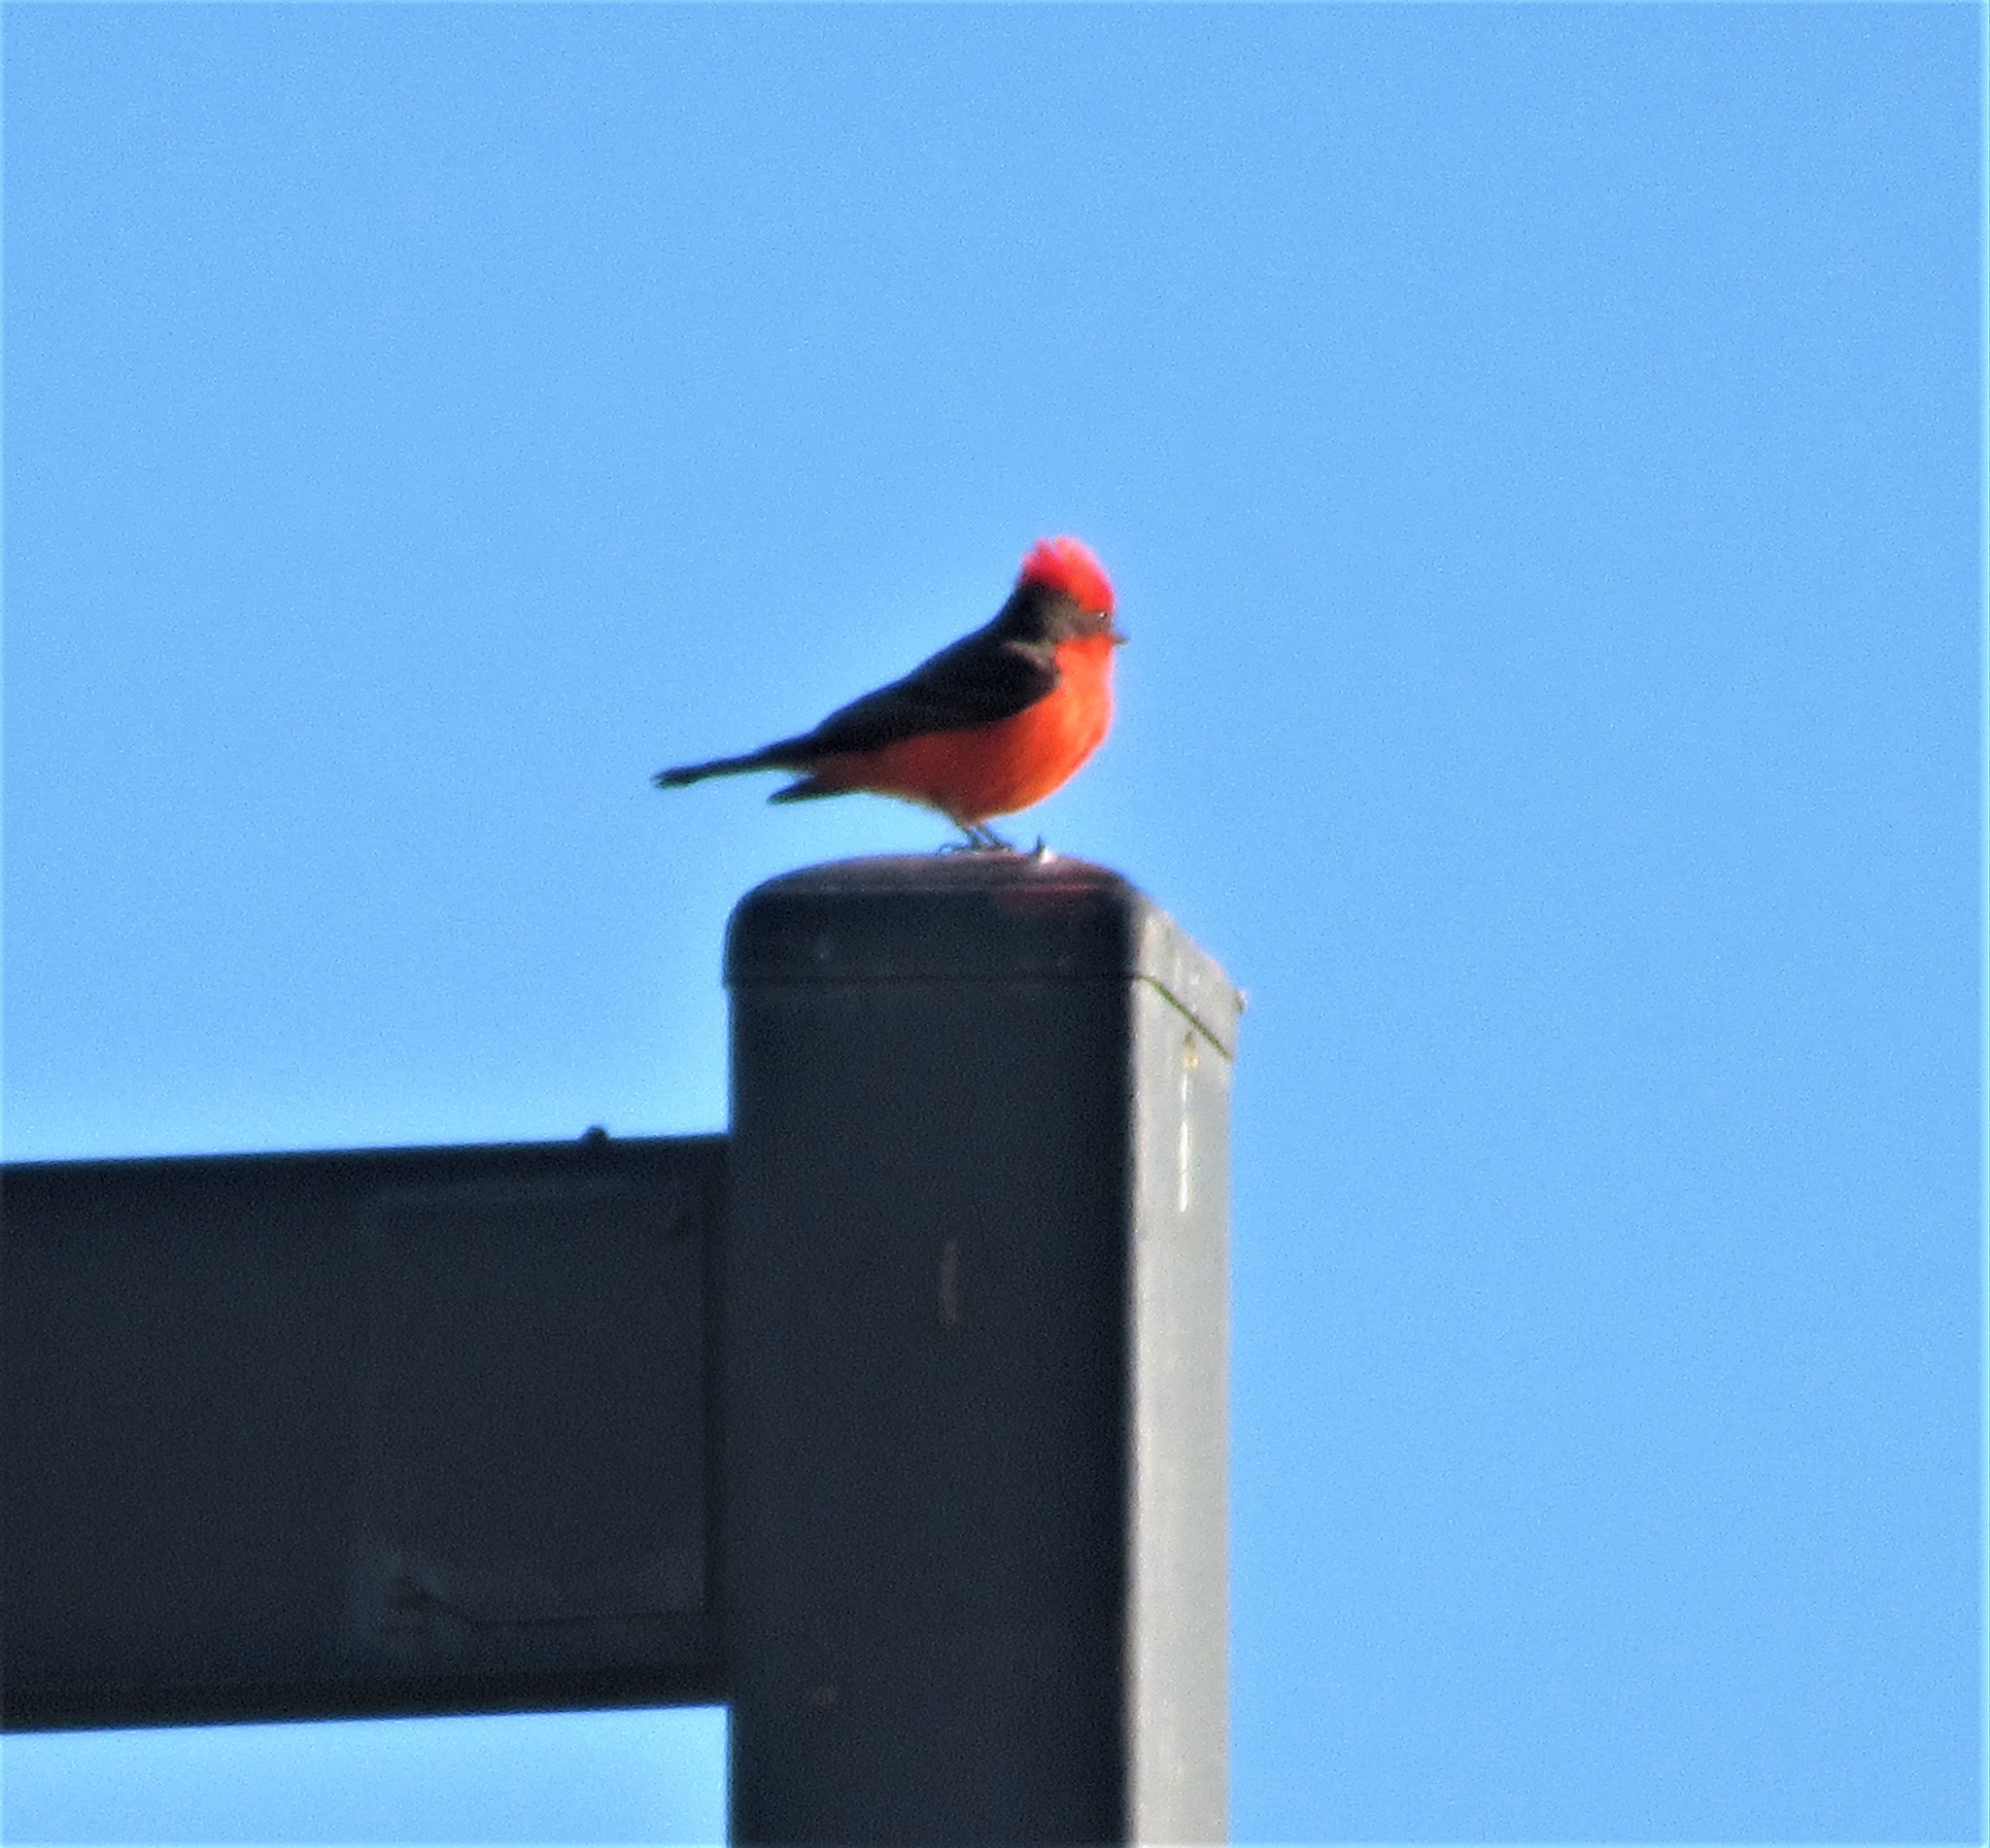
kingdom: Animalia
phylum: Chordata
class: Aves
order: Passeriformes
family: Tyrannidae
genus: Pyrocephalus
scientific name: Pyrocephalus rubinus
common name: Vermilion flycatcher
